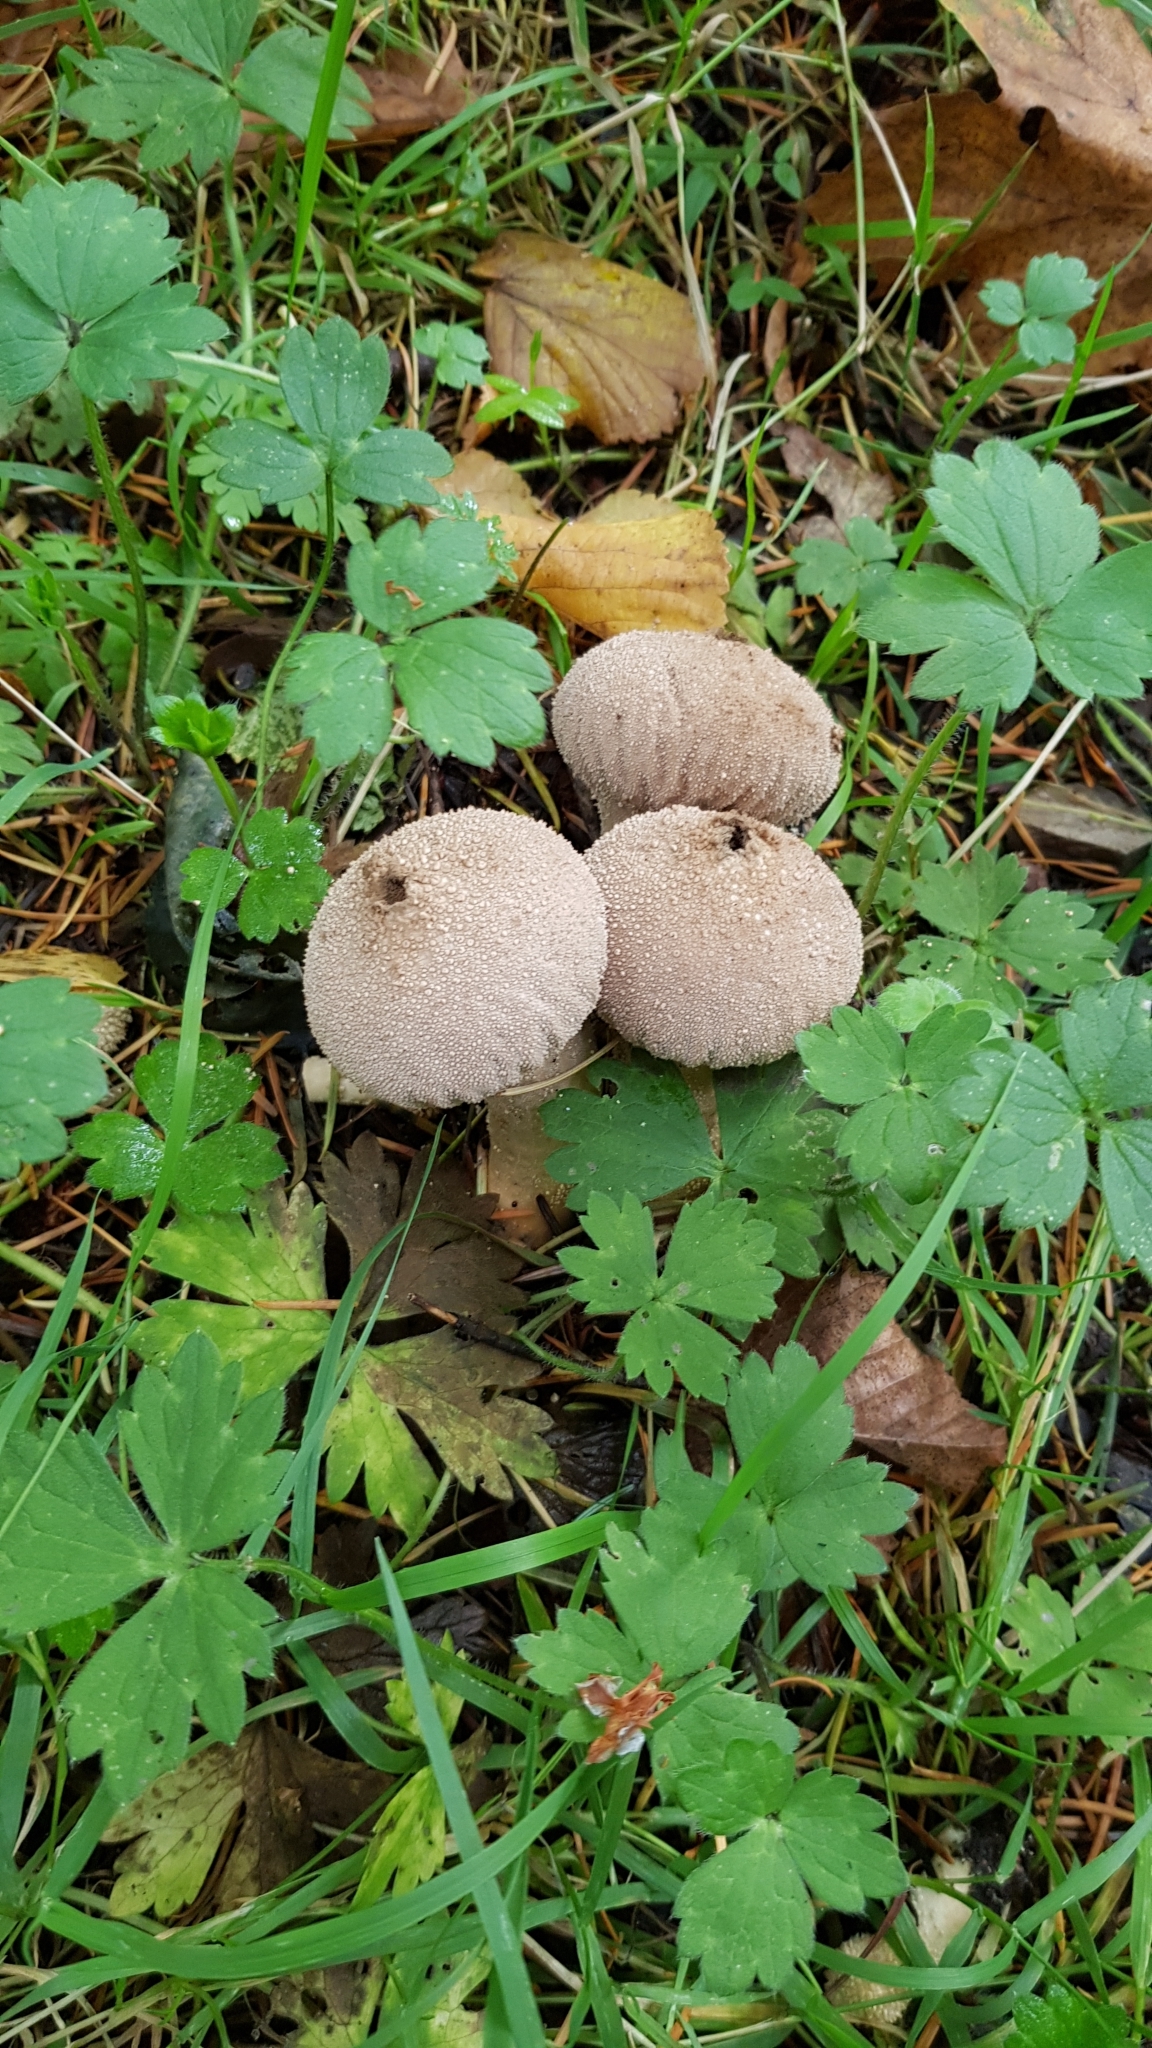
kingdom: Fungi
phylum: Basidiomycota
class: Agaricomycetes
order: Agaricales
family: Lycoperdaceae
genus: Lycoperdon
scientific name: Lycoperdon perlatum
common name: Common puffball
